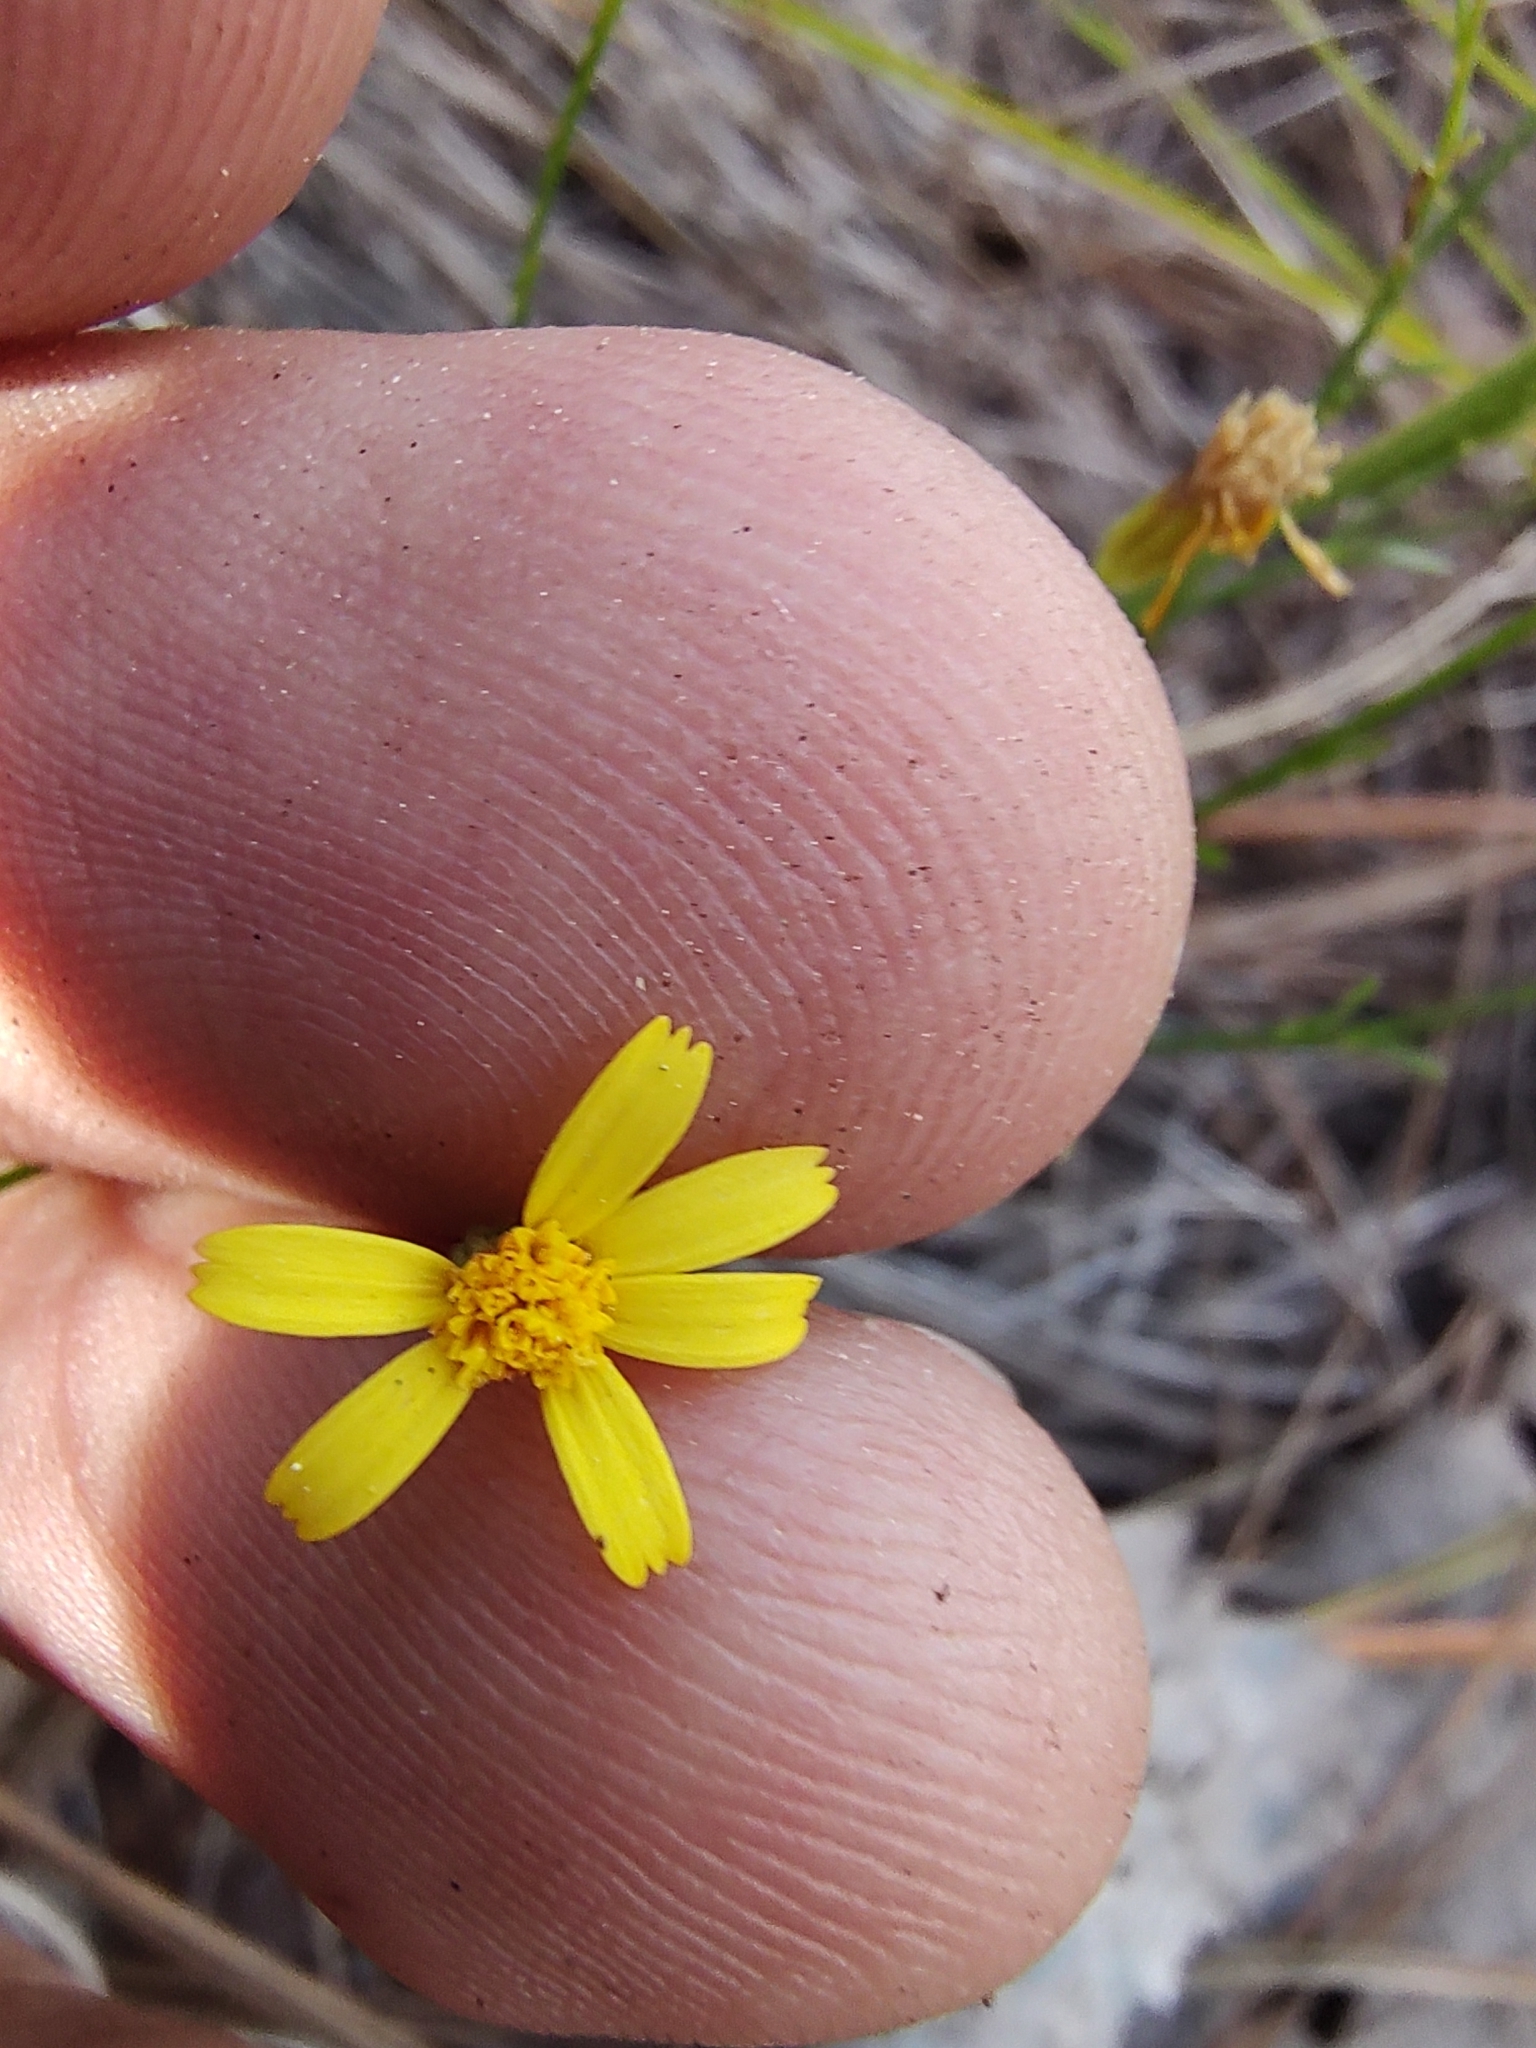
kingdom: Plantae
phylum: Tracheophyta
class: Magnoliopsida
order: Asterales
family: Asteraceae
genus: Oxypappus
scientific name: Oxypappus scaber
